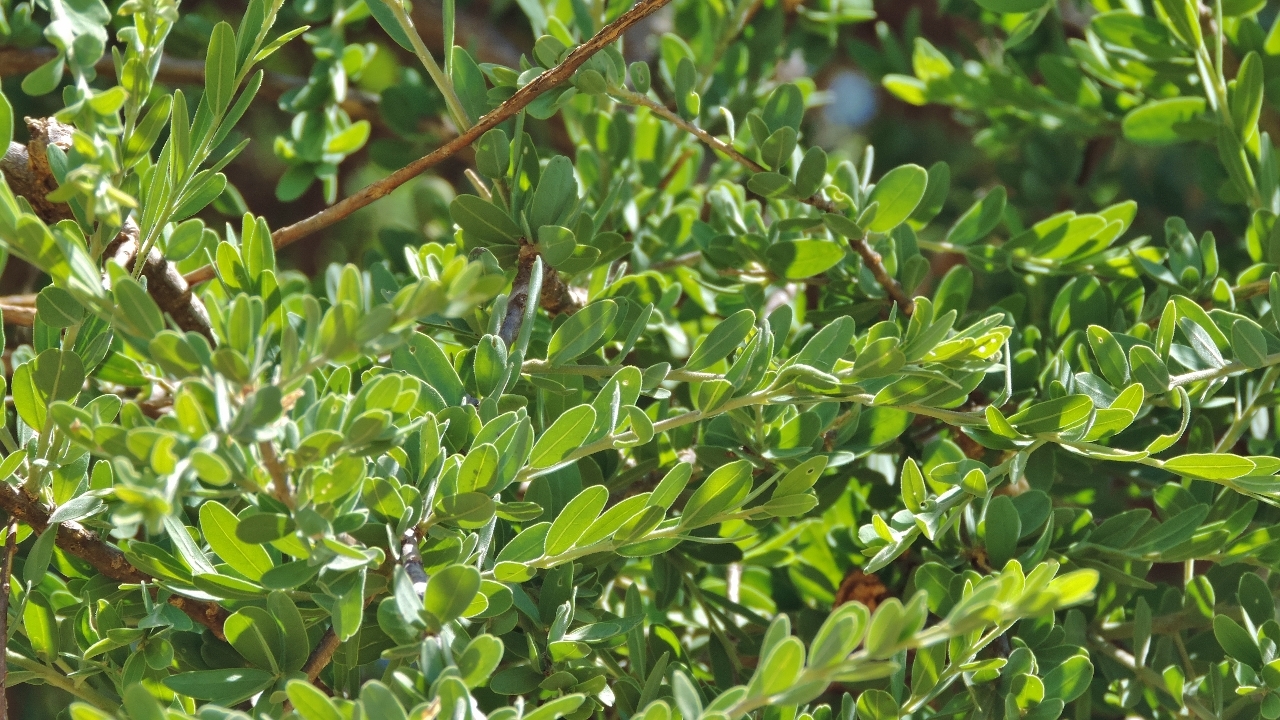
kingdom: Plantae
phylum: Tracheophyta
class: Magnoliopsida
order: Brassicales
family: Capparaceae
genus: Boscia
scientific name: Boscia albitrunca
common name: Caper bush
